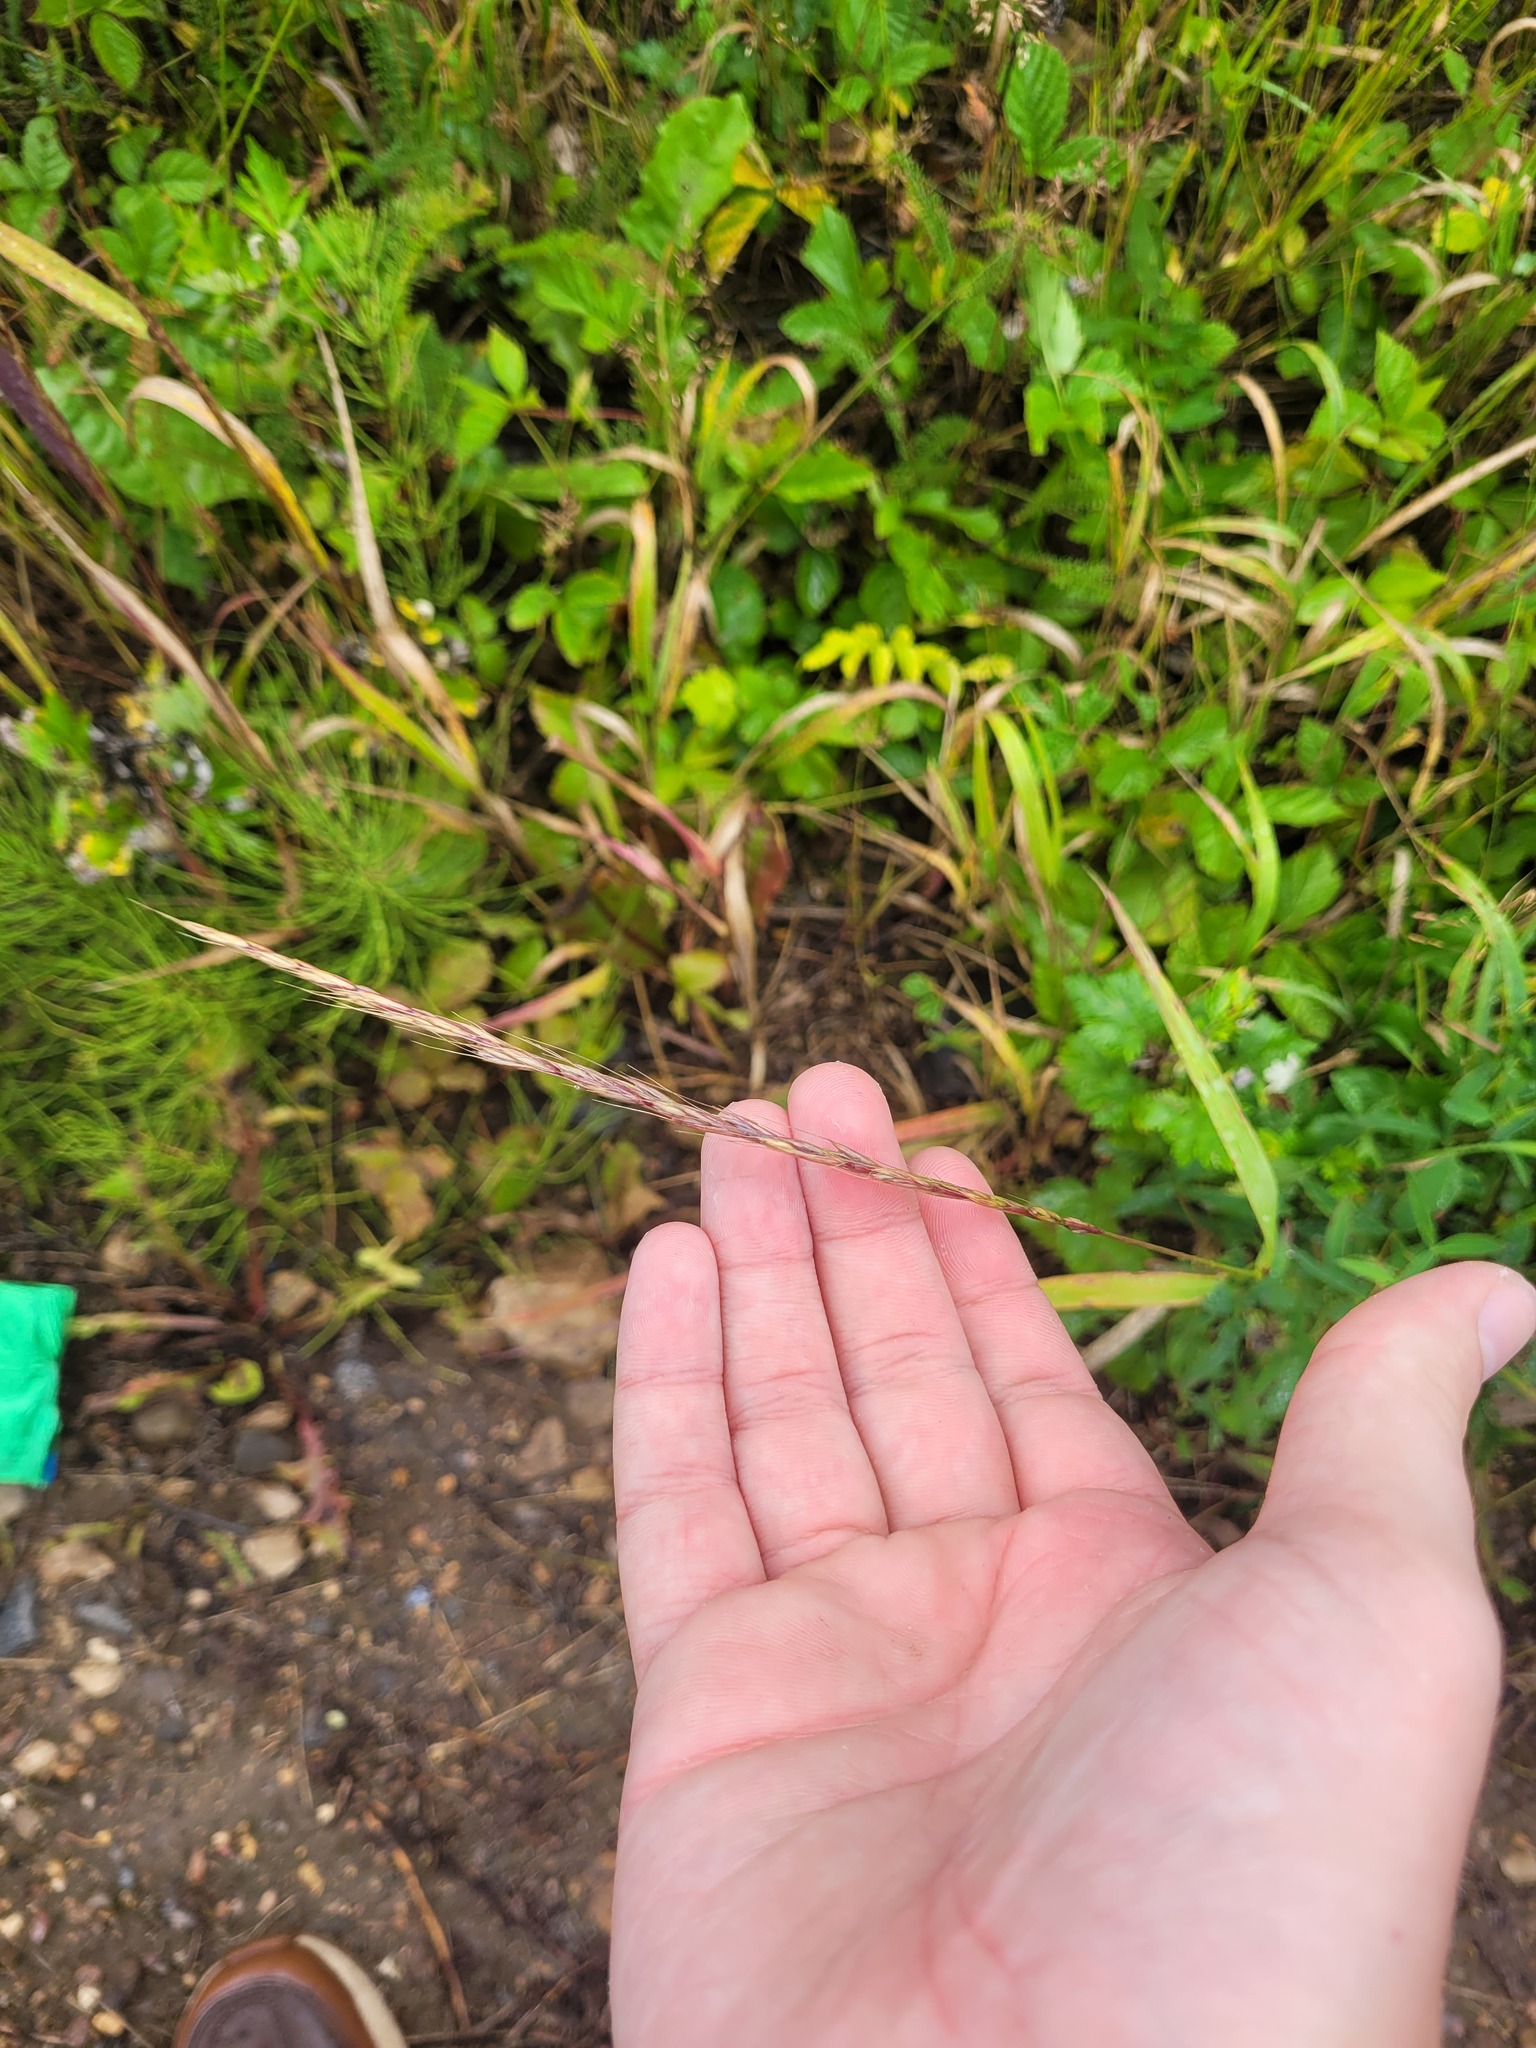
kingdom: Plantae
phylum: Tracheophyta
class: Liliopsida
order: Poales
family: Poaceae
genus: Elymus
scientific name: Elymus caninus
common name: Bearded couch
